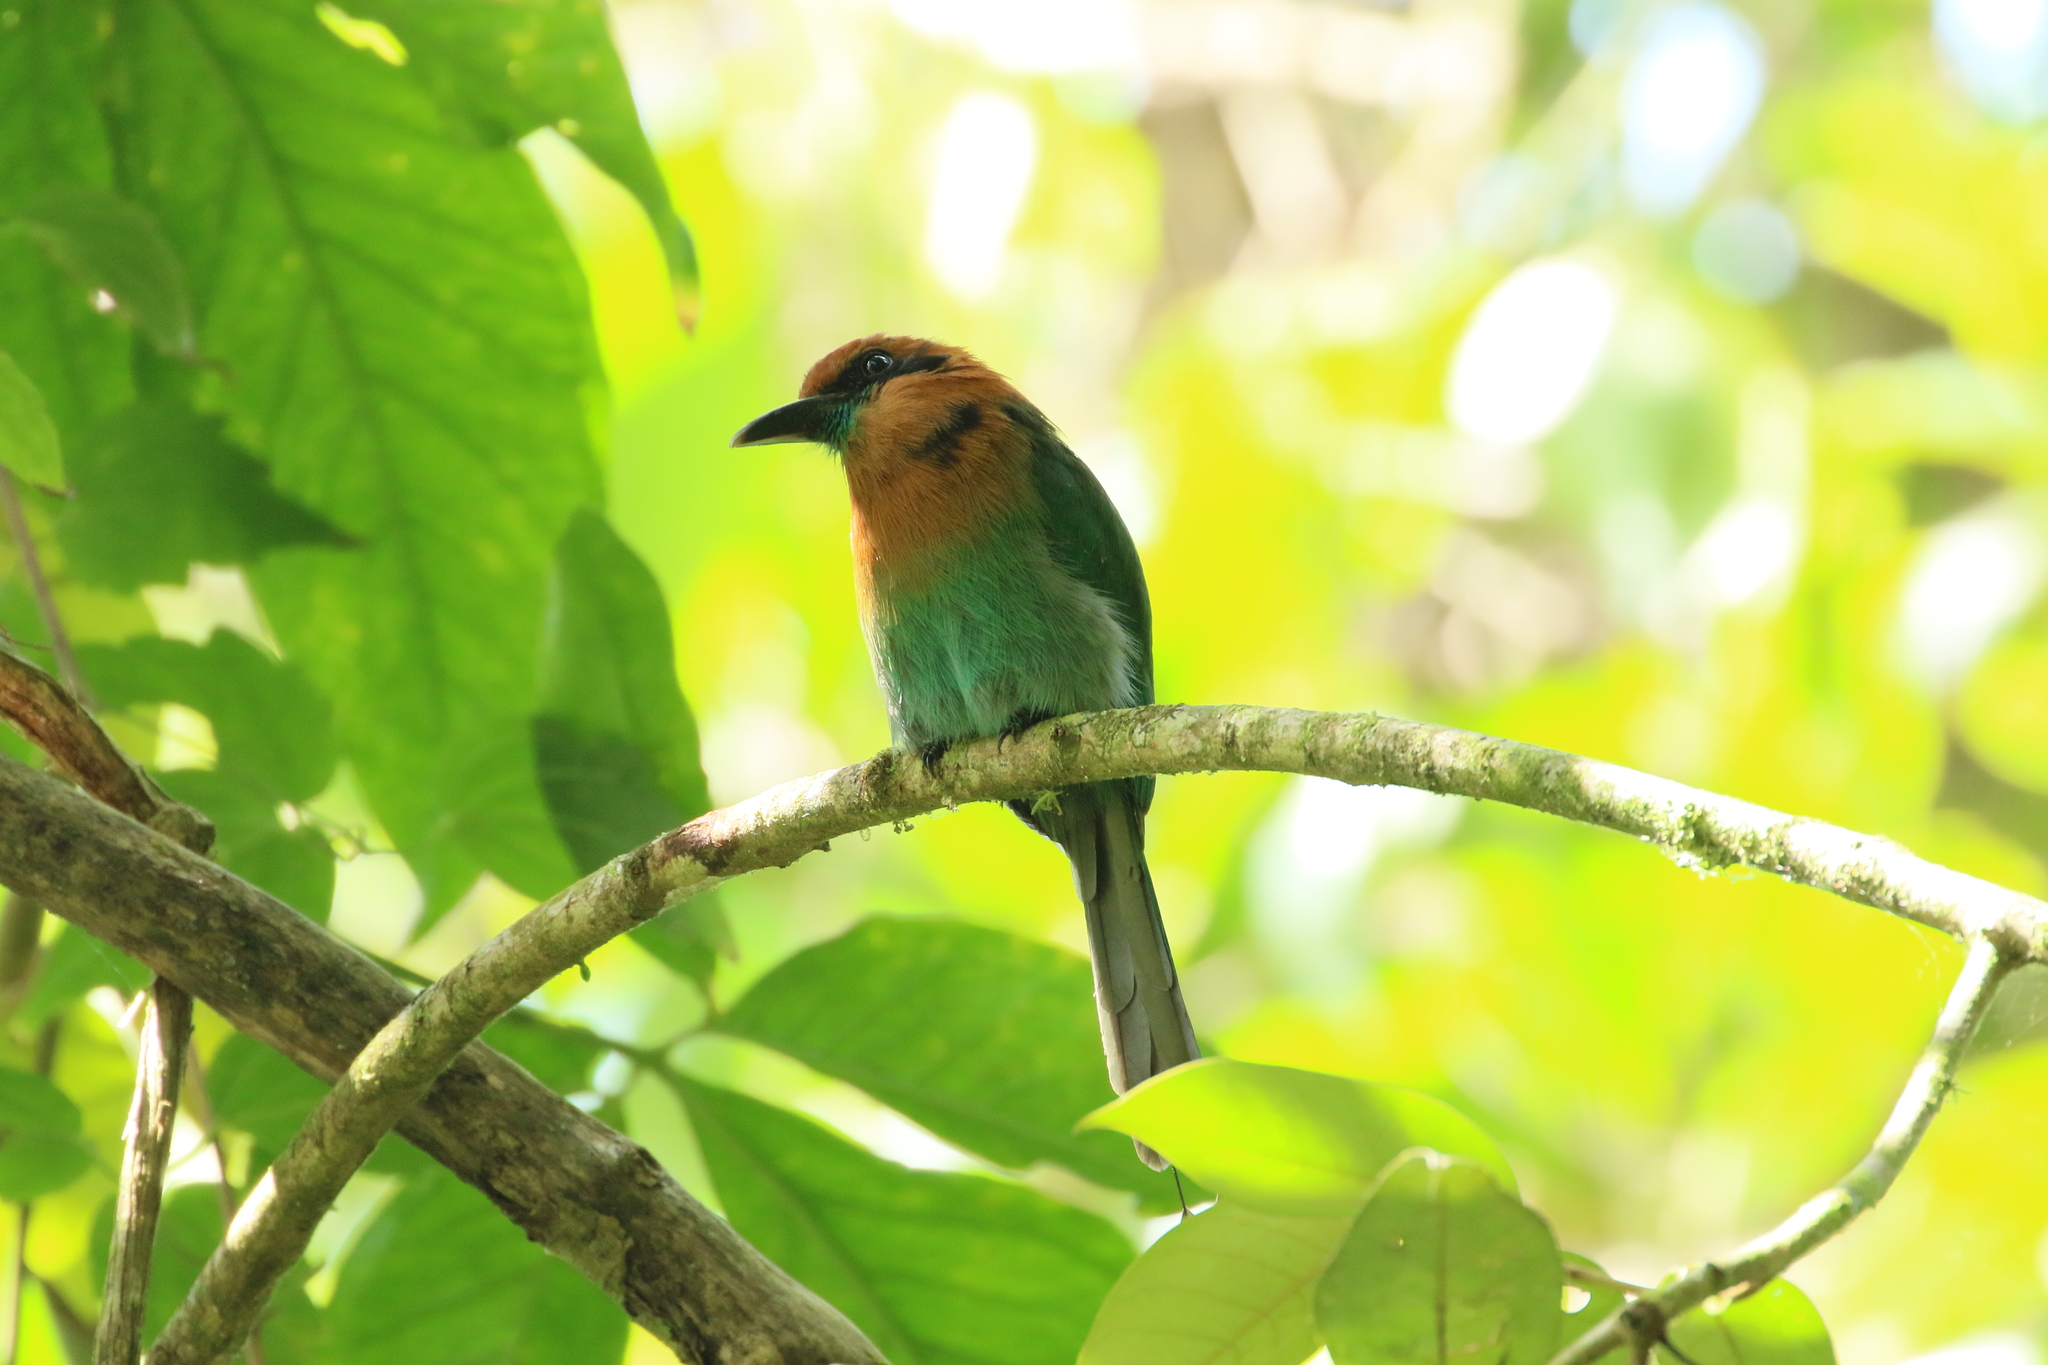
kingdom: Animalia
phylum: Chordata
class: Aves
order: Coraciiformes
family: Momotidae
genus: Electron
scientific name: Electron platyrhynchum
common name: Broad-billed motmot
